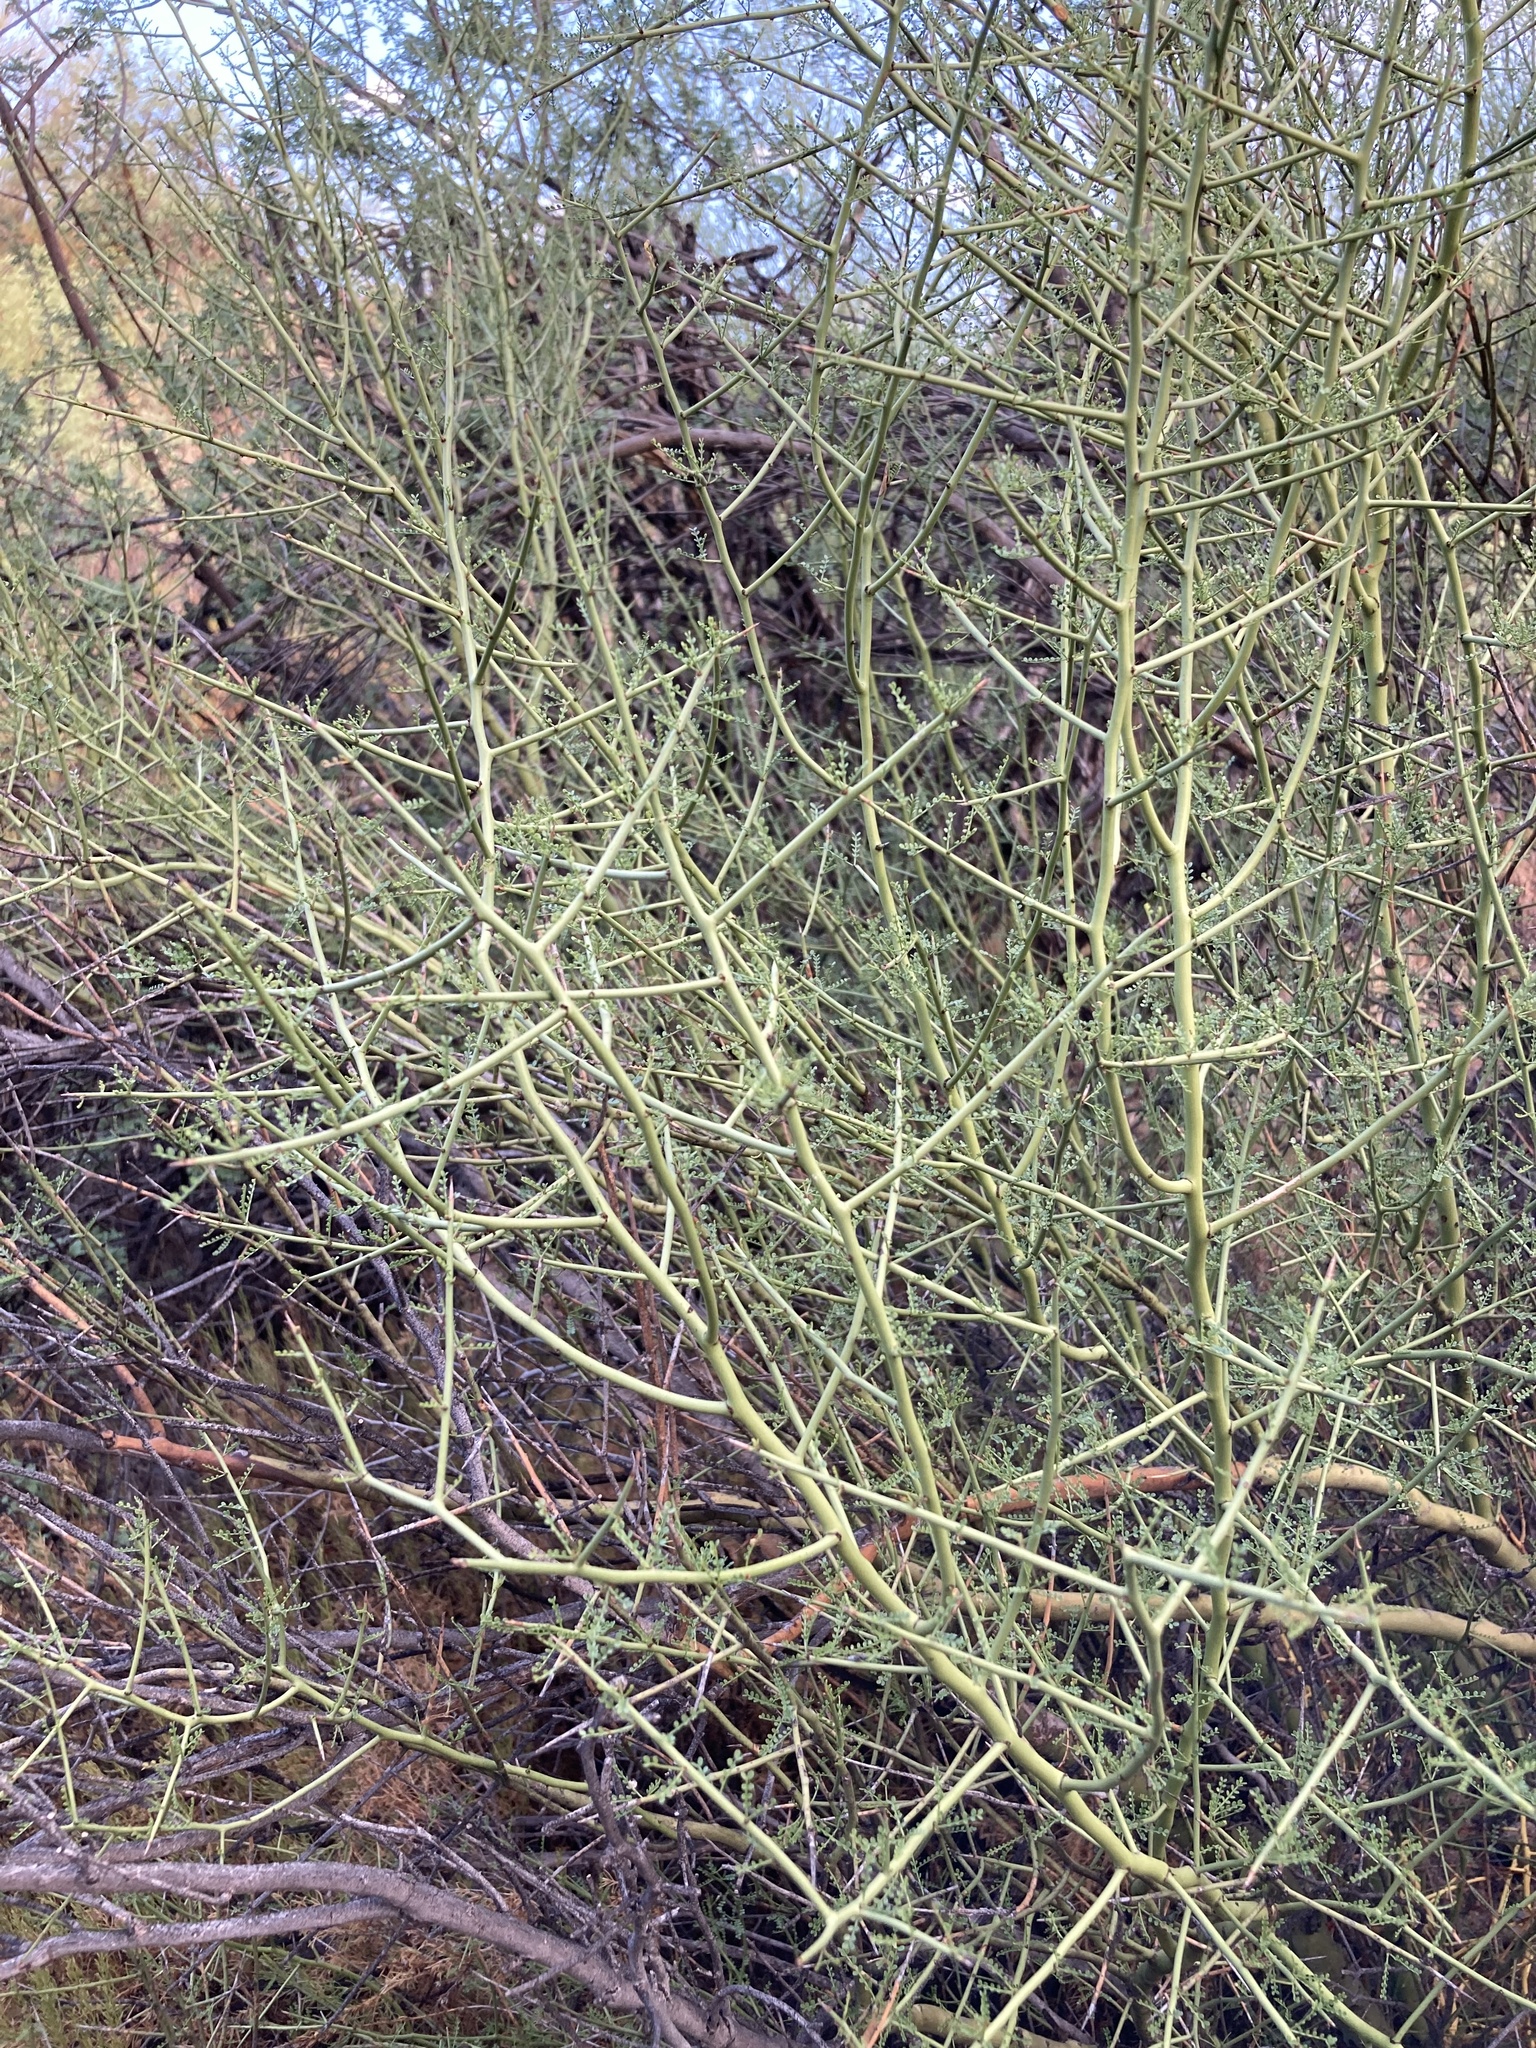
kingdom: Plantae
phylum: Tracheophyta
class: Magnoliopsida
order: Fabales
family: Fabaceae
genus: Parkinsonia
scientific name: Parkinsonia microphylla
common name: Yellow paloverde
